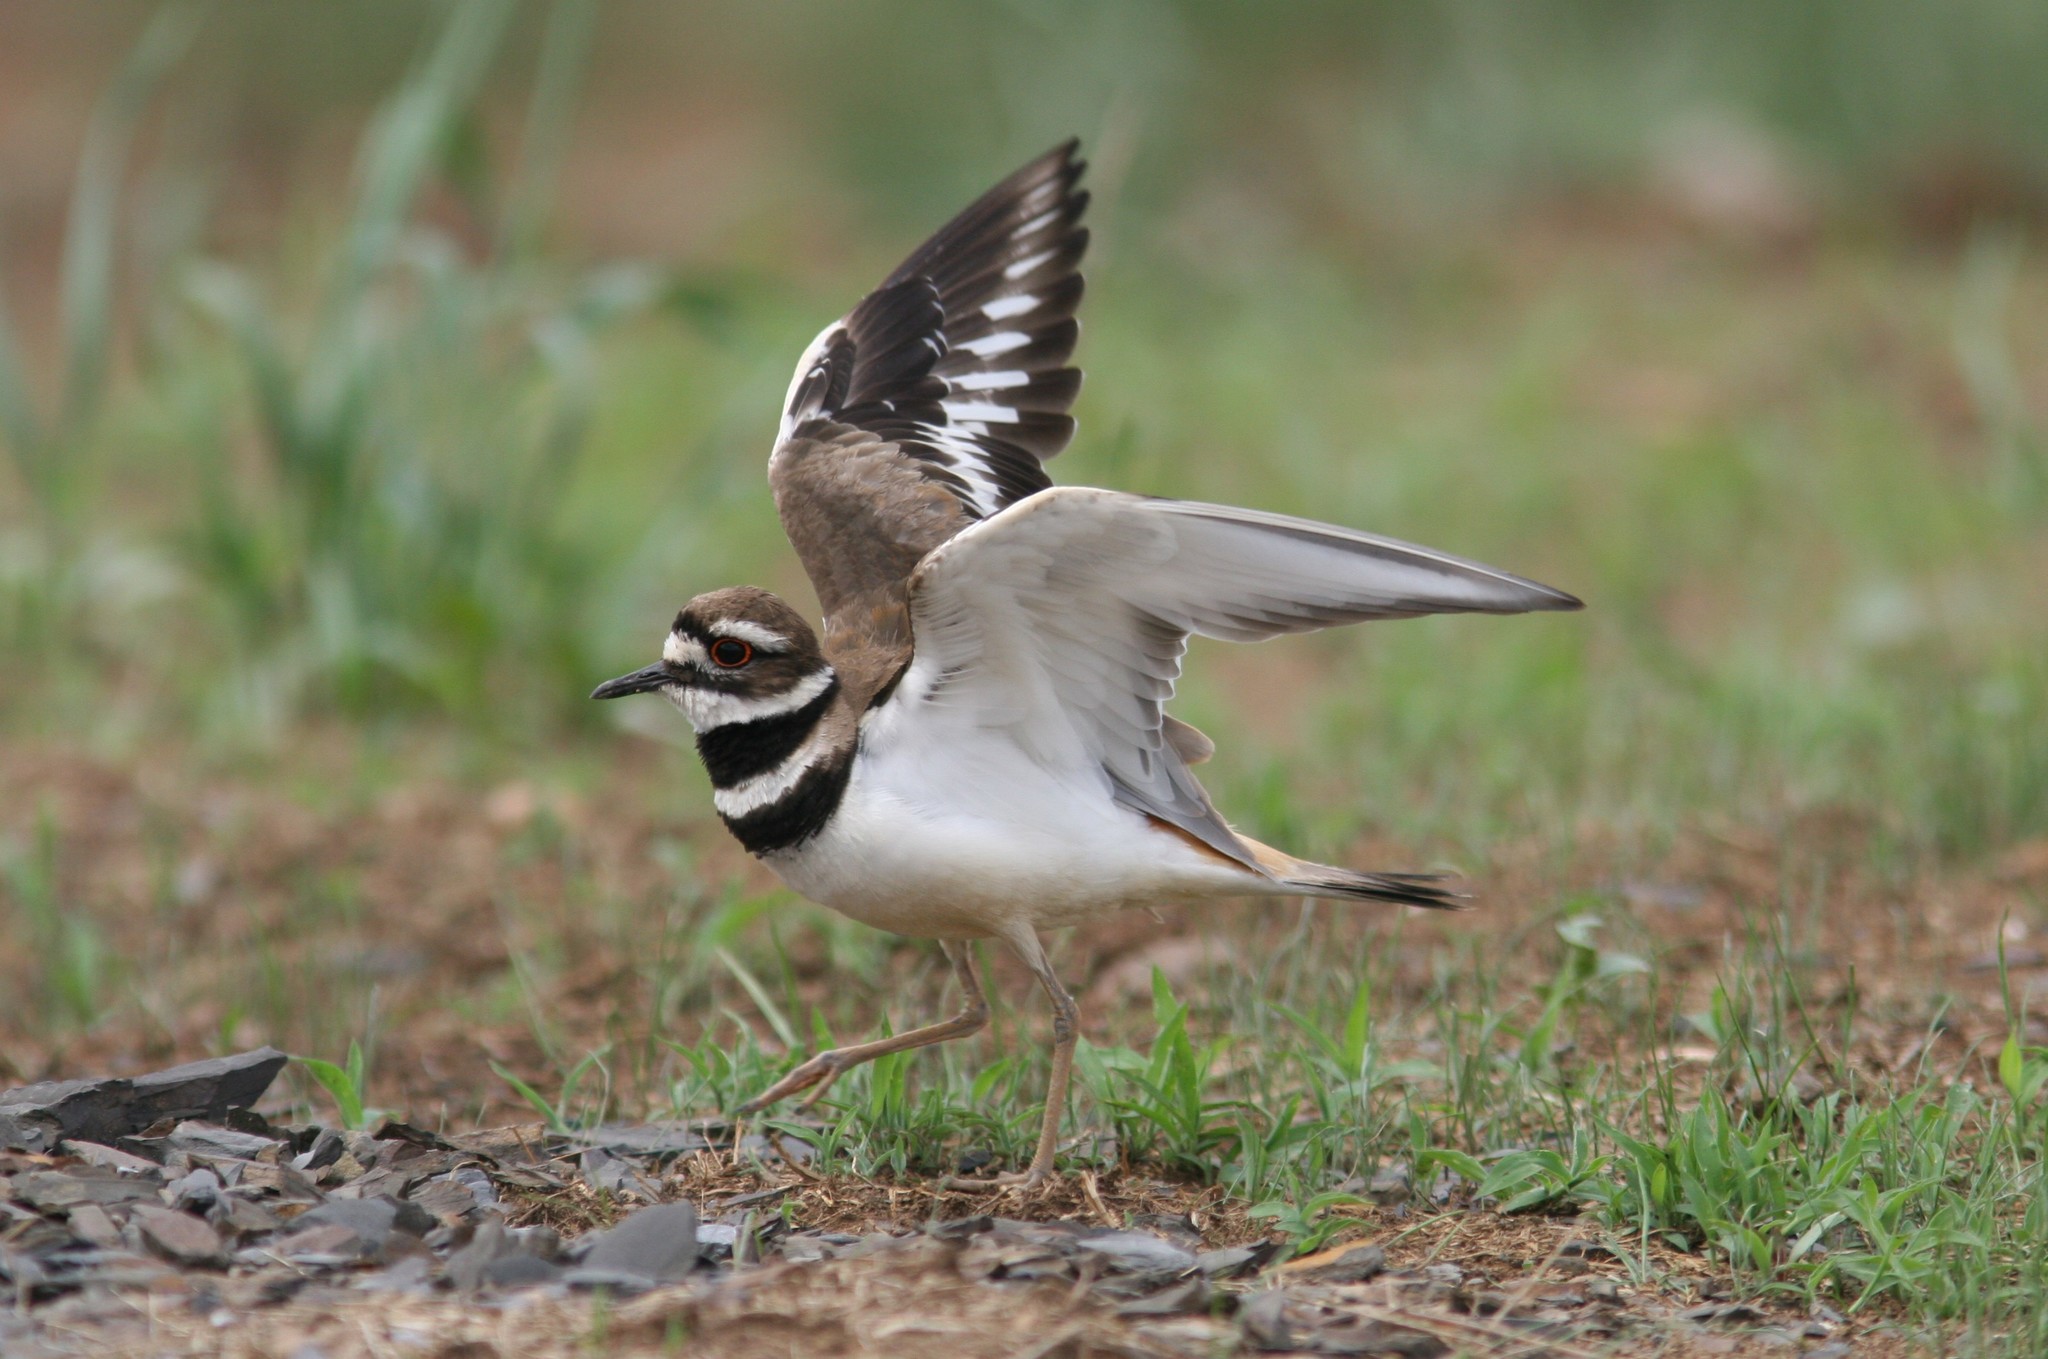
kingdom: Animalia
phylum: Chordata
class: Aves
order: Charadriiformes
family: Charadriidae
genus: Charadrius
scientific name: Charadrius vociferus
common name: Killdeer
